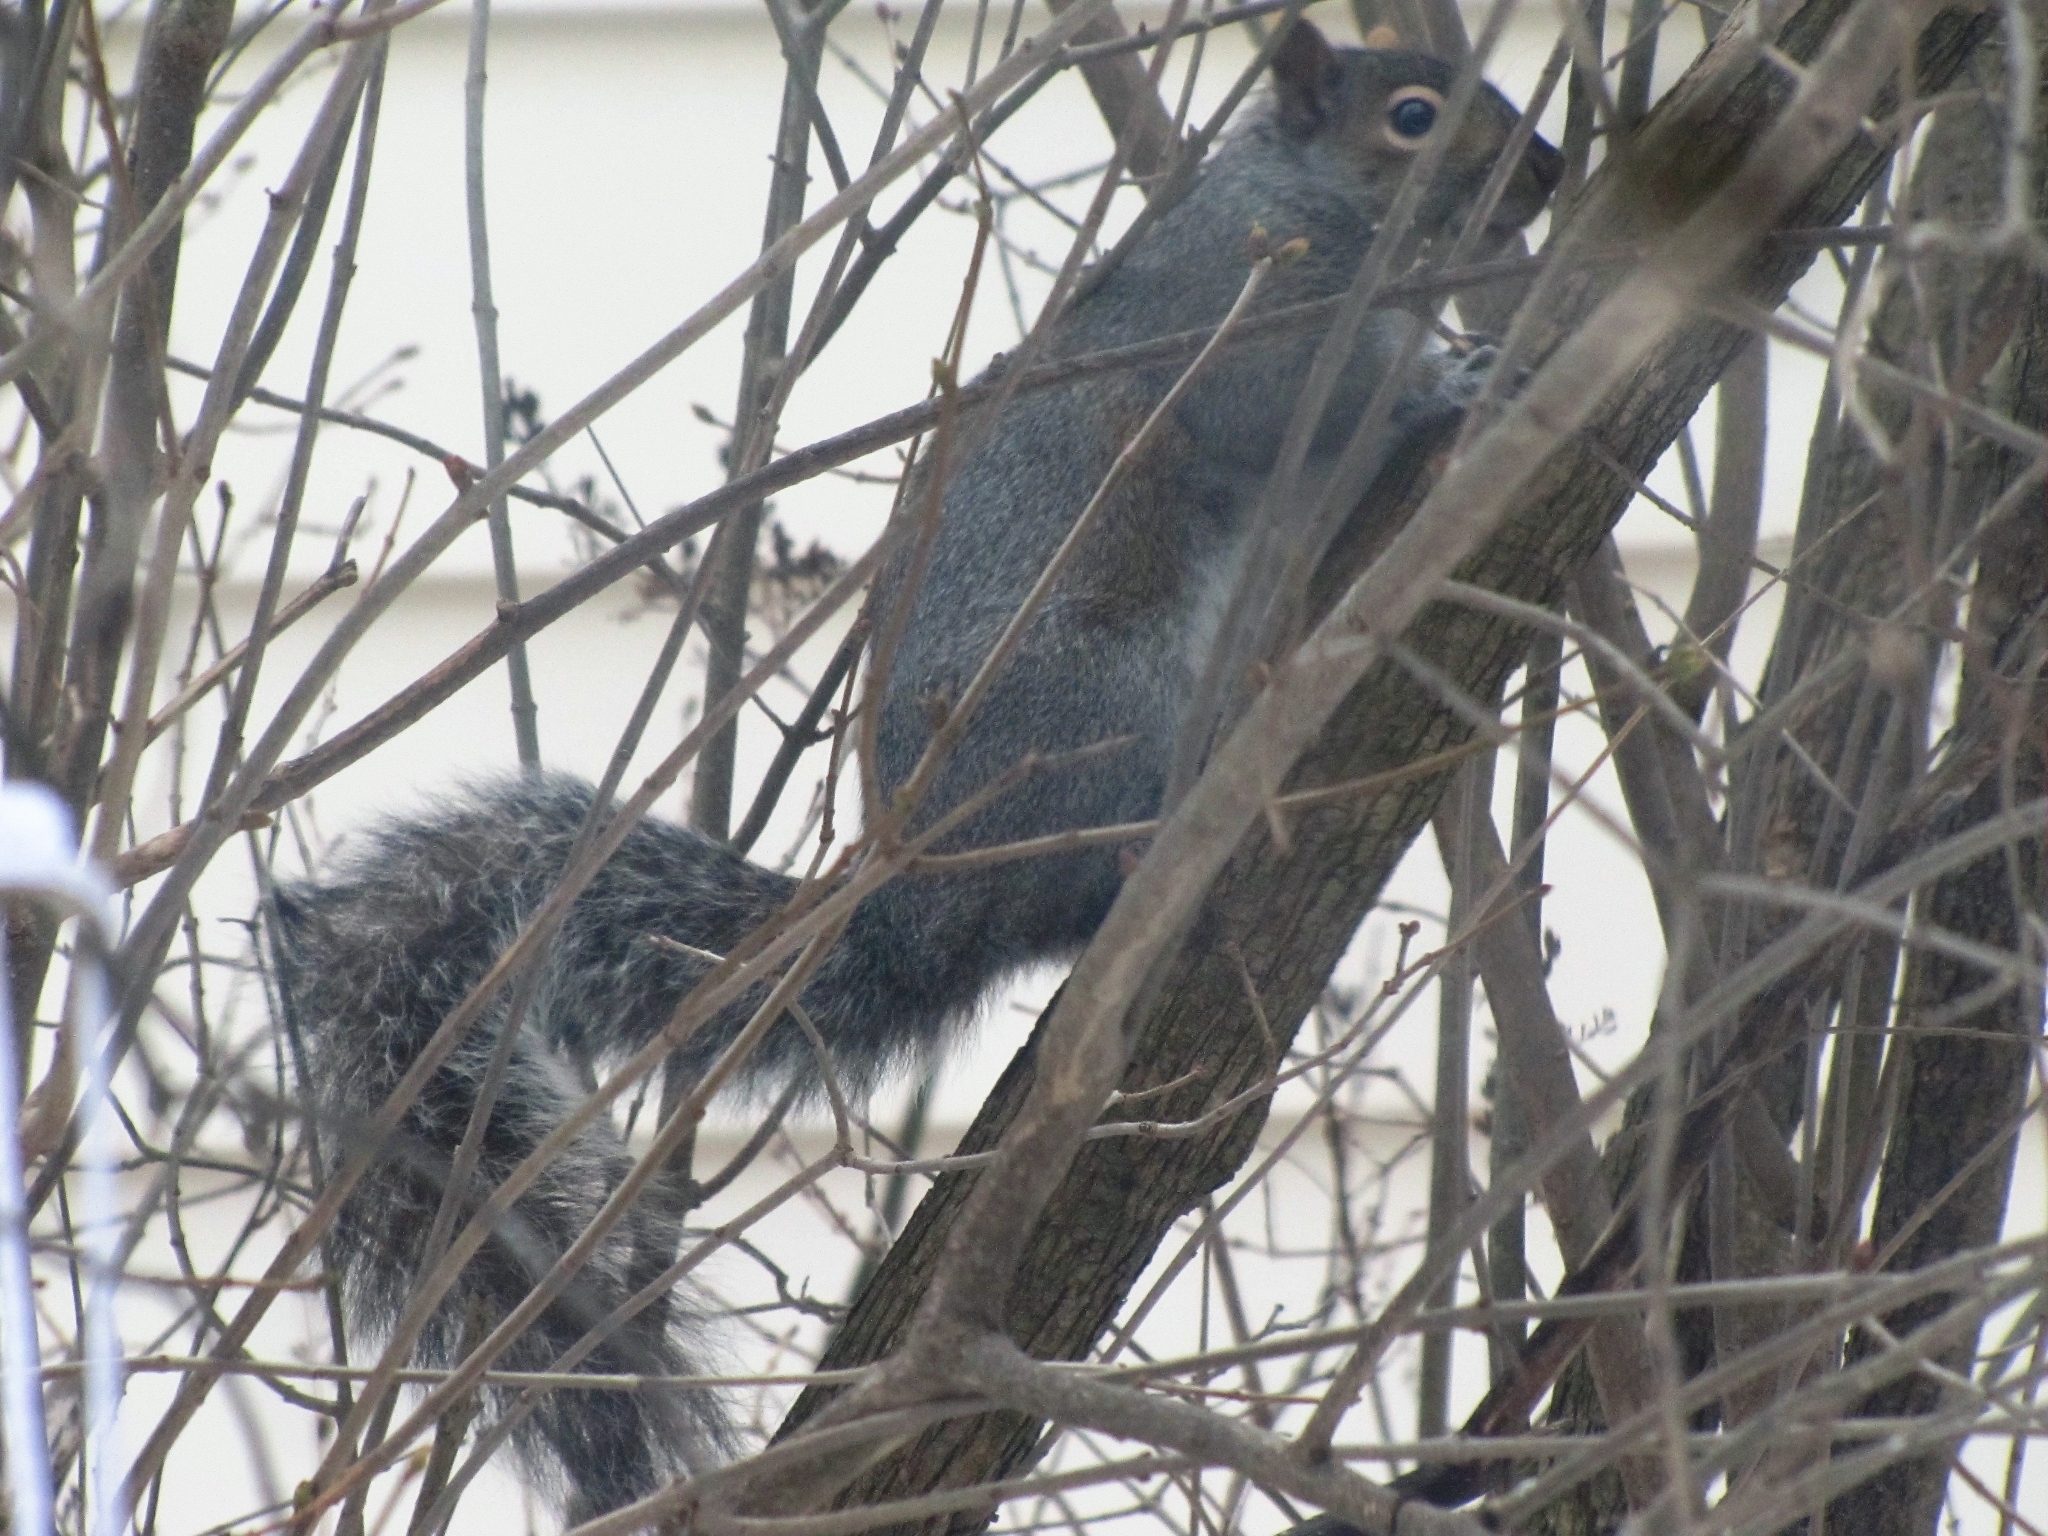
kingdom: Animalia
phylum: Chordata
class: Mammalia
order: Rodentia
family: Sciuridae
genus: Sciurus
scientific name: Sciurus carolinensis
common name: Eastern gray squirrel
